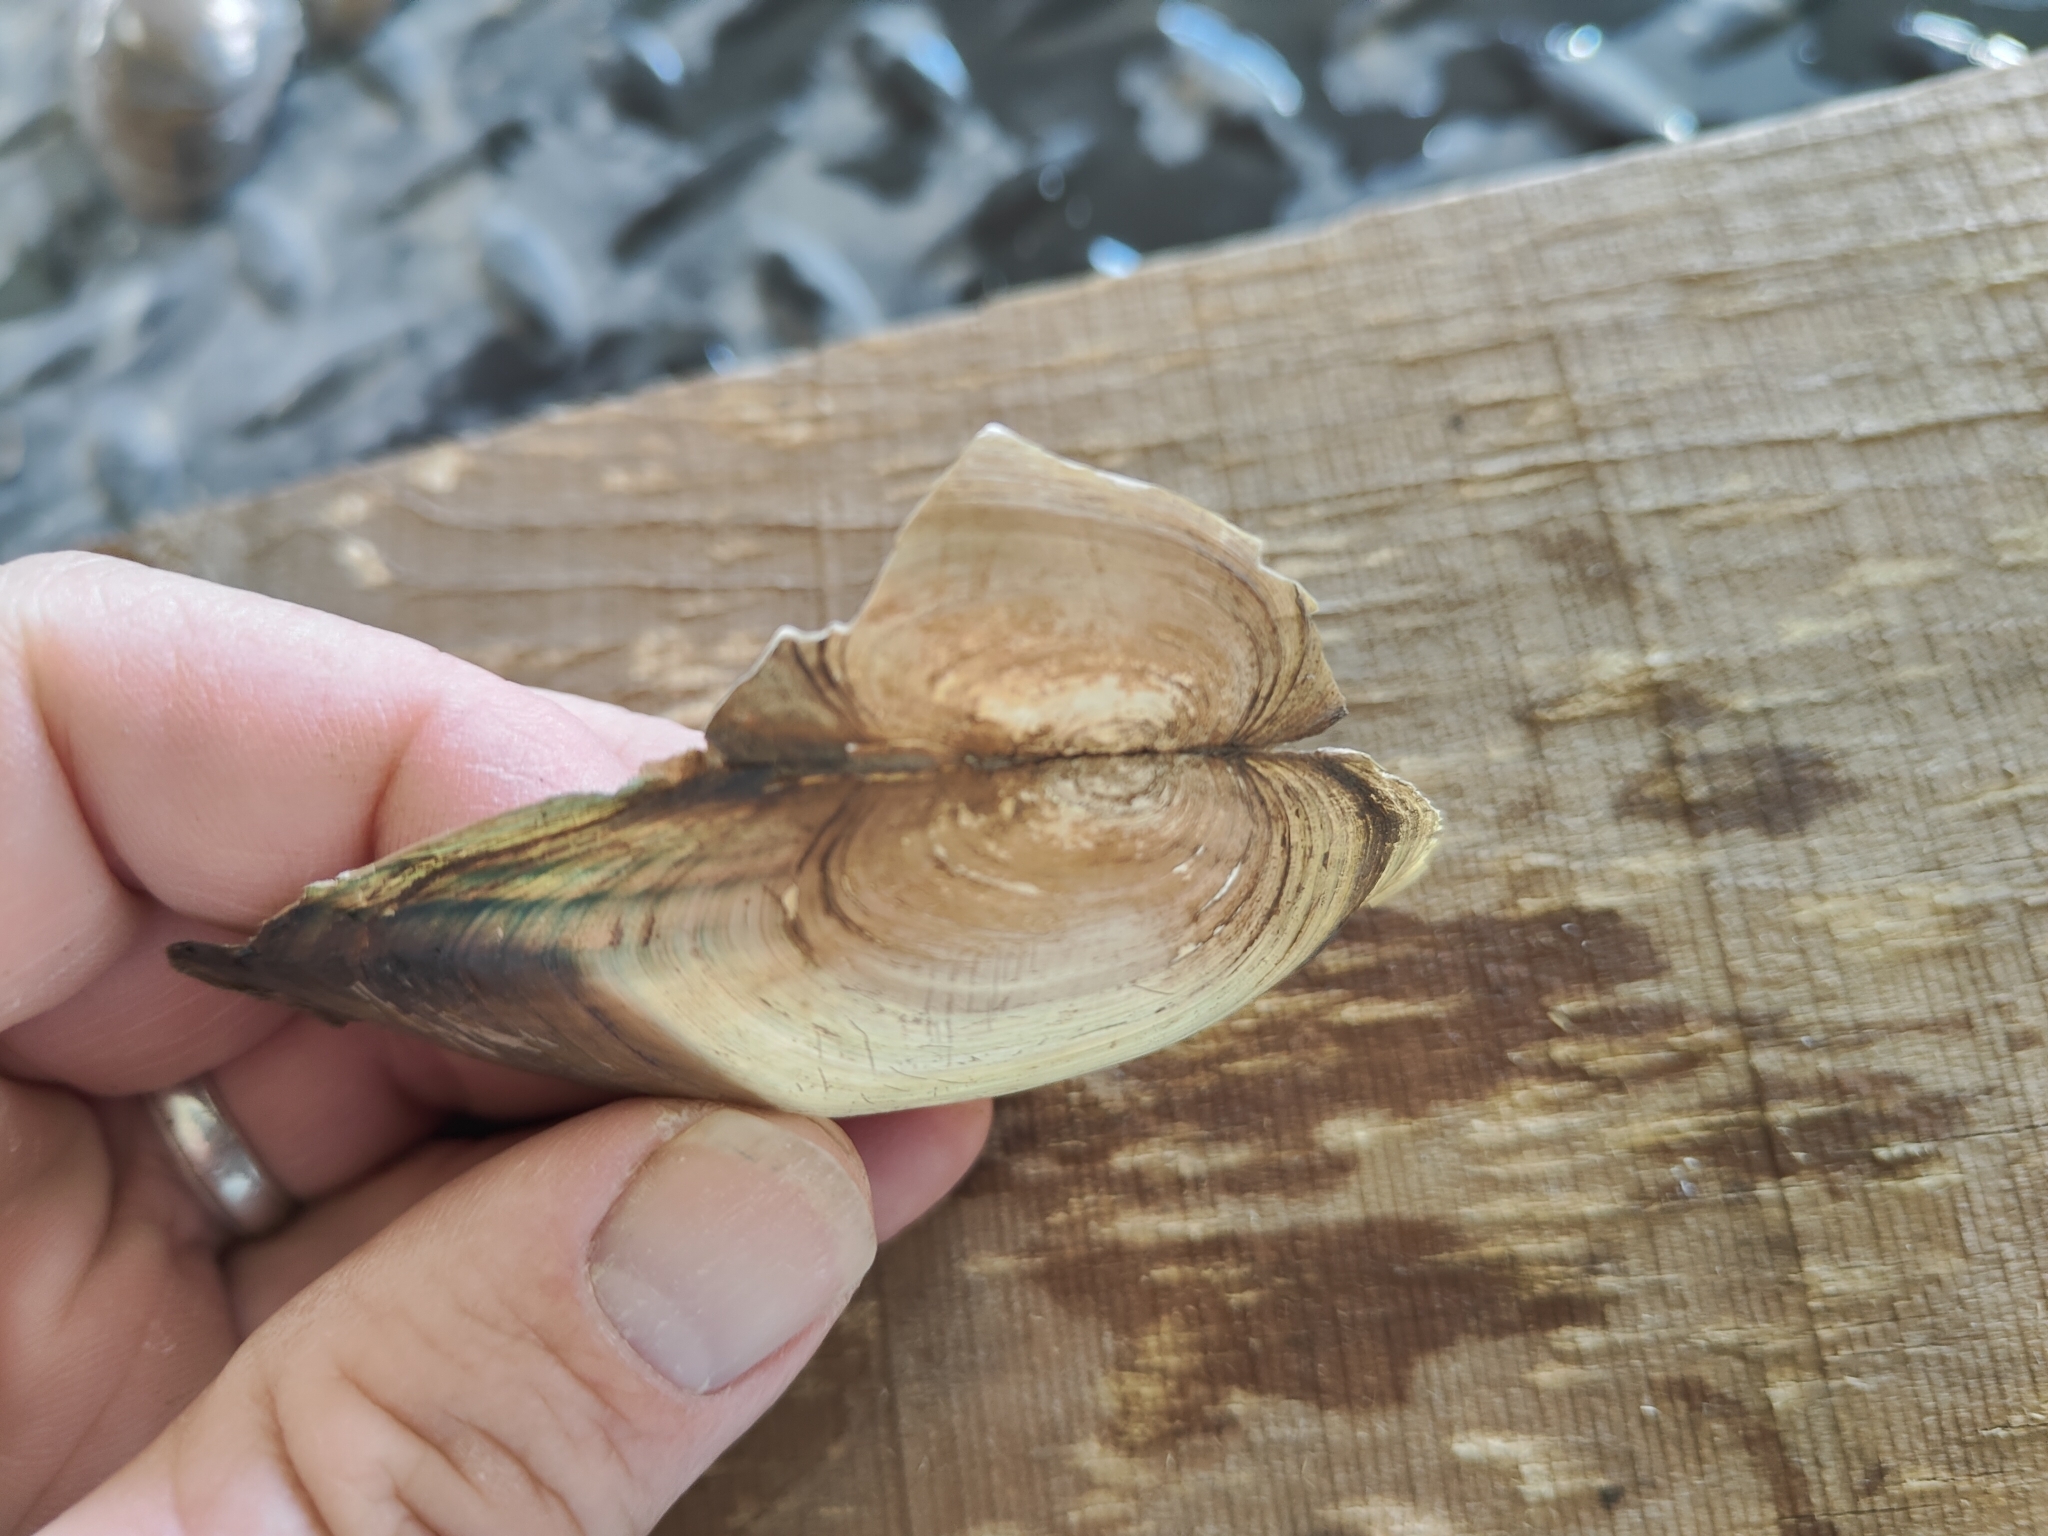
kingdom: Animalia
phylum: Mollusca
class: Bivalvia
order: Unionida
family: Unionidae
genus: Utterbackia
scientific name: Utterbackia imbecillis
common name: Paper pondshell
